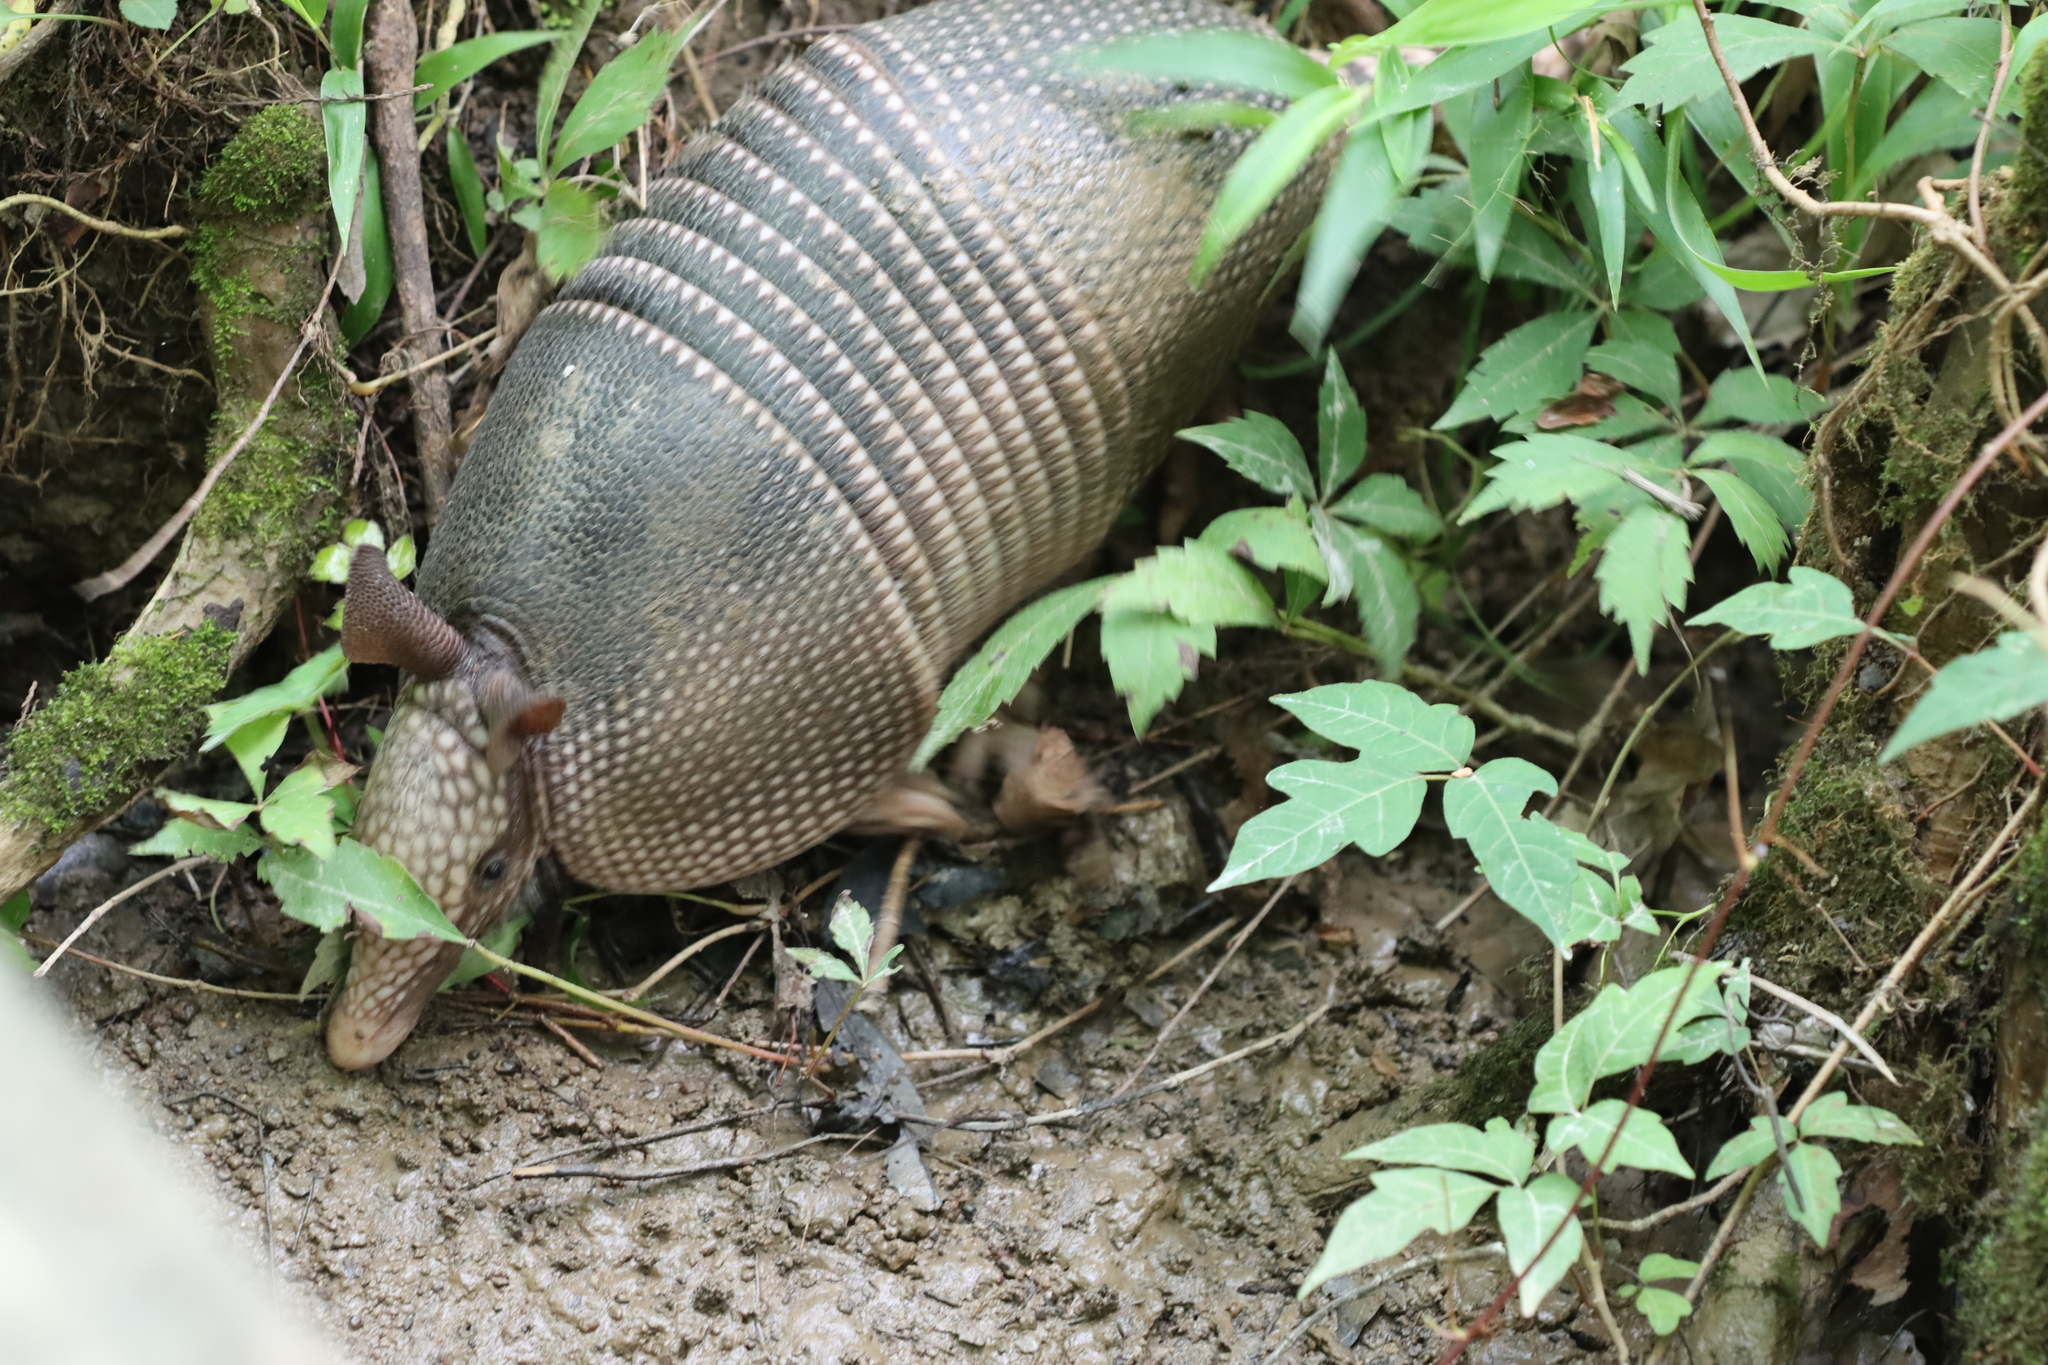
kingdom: Animalia
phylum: Chordata
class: Mammalia
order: Cingulata
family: Dasypodidae
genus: Dasypus
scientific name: Dasypus novemcinctus
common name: Nine-banded armadillo
